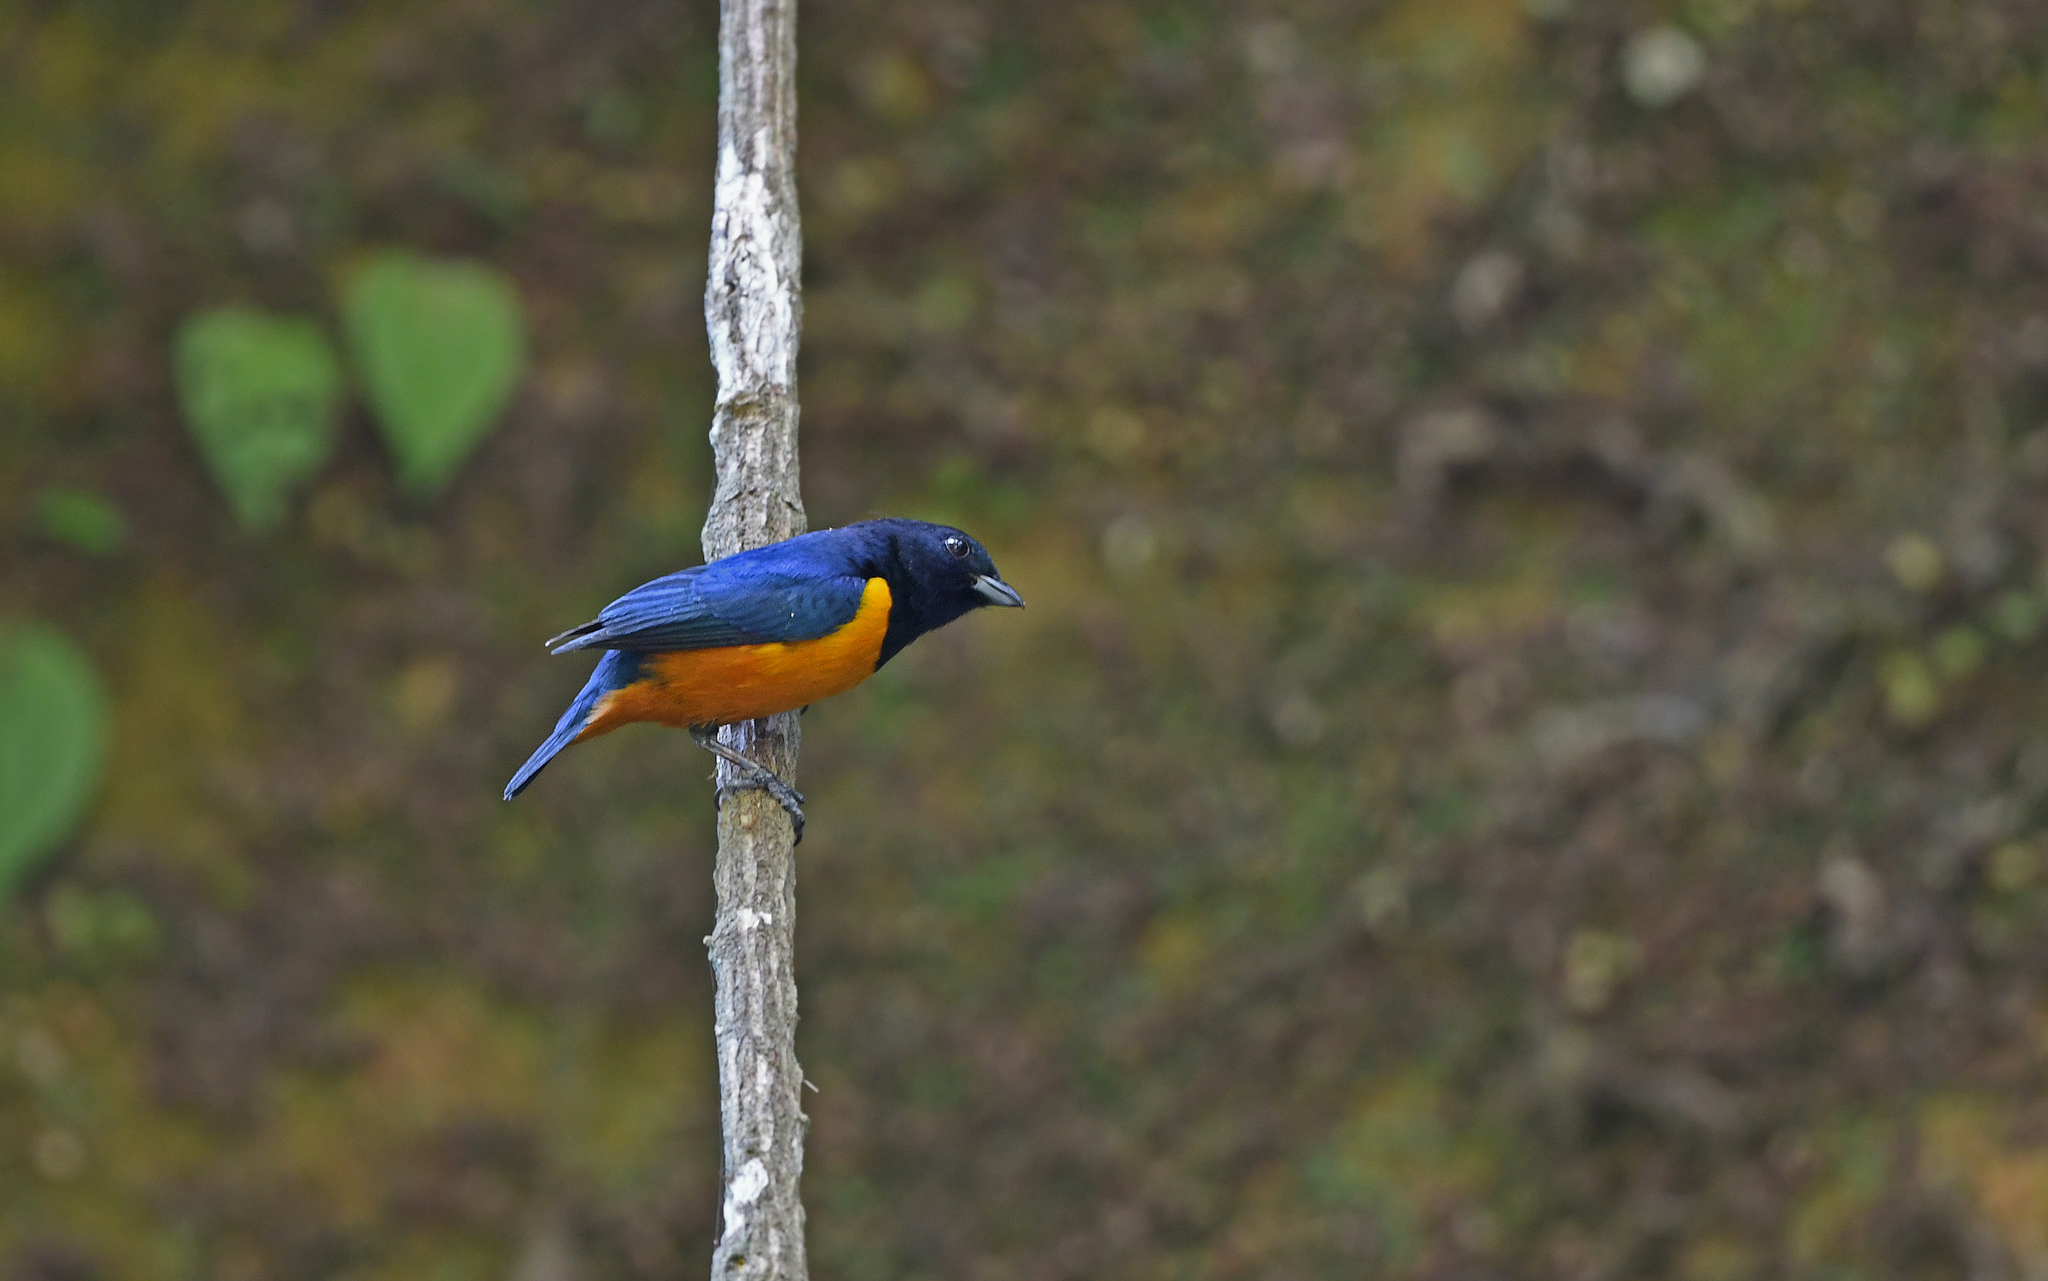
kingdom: Animalia
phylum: Chordata
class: Aves
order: Passeriformes
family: Fringillidae
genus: Euphonia
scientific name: Euphonia rufiventris
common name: Rufous-bellied euphonia
